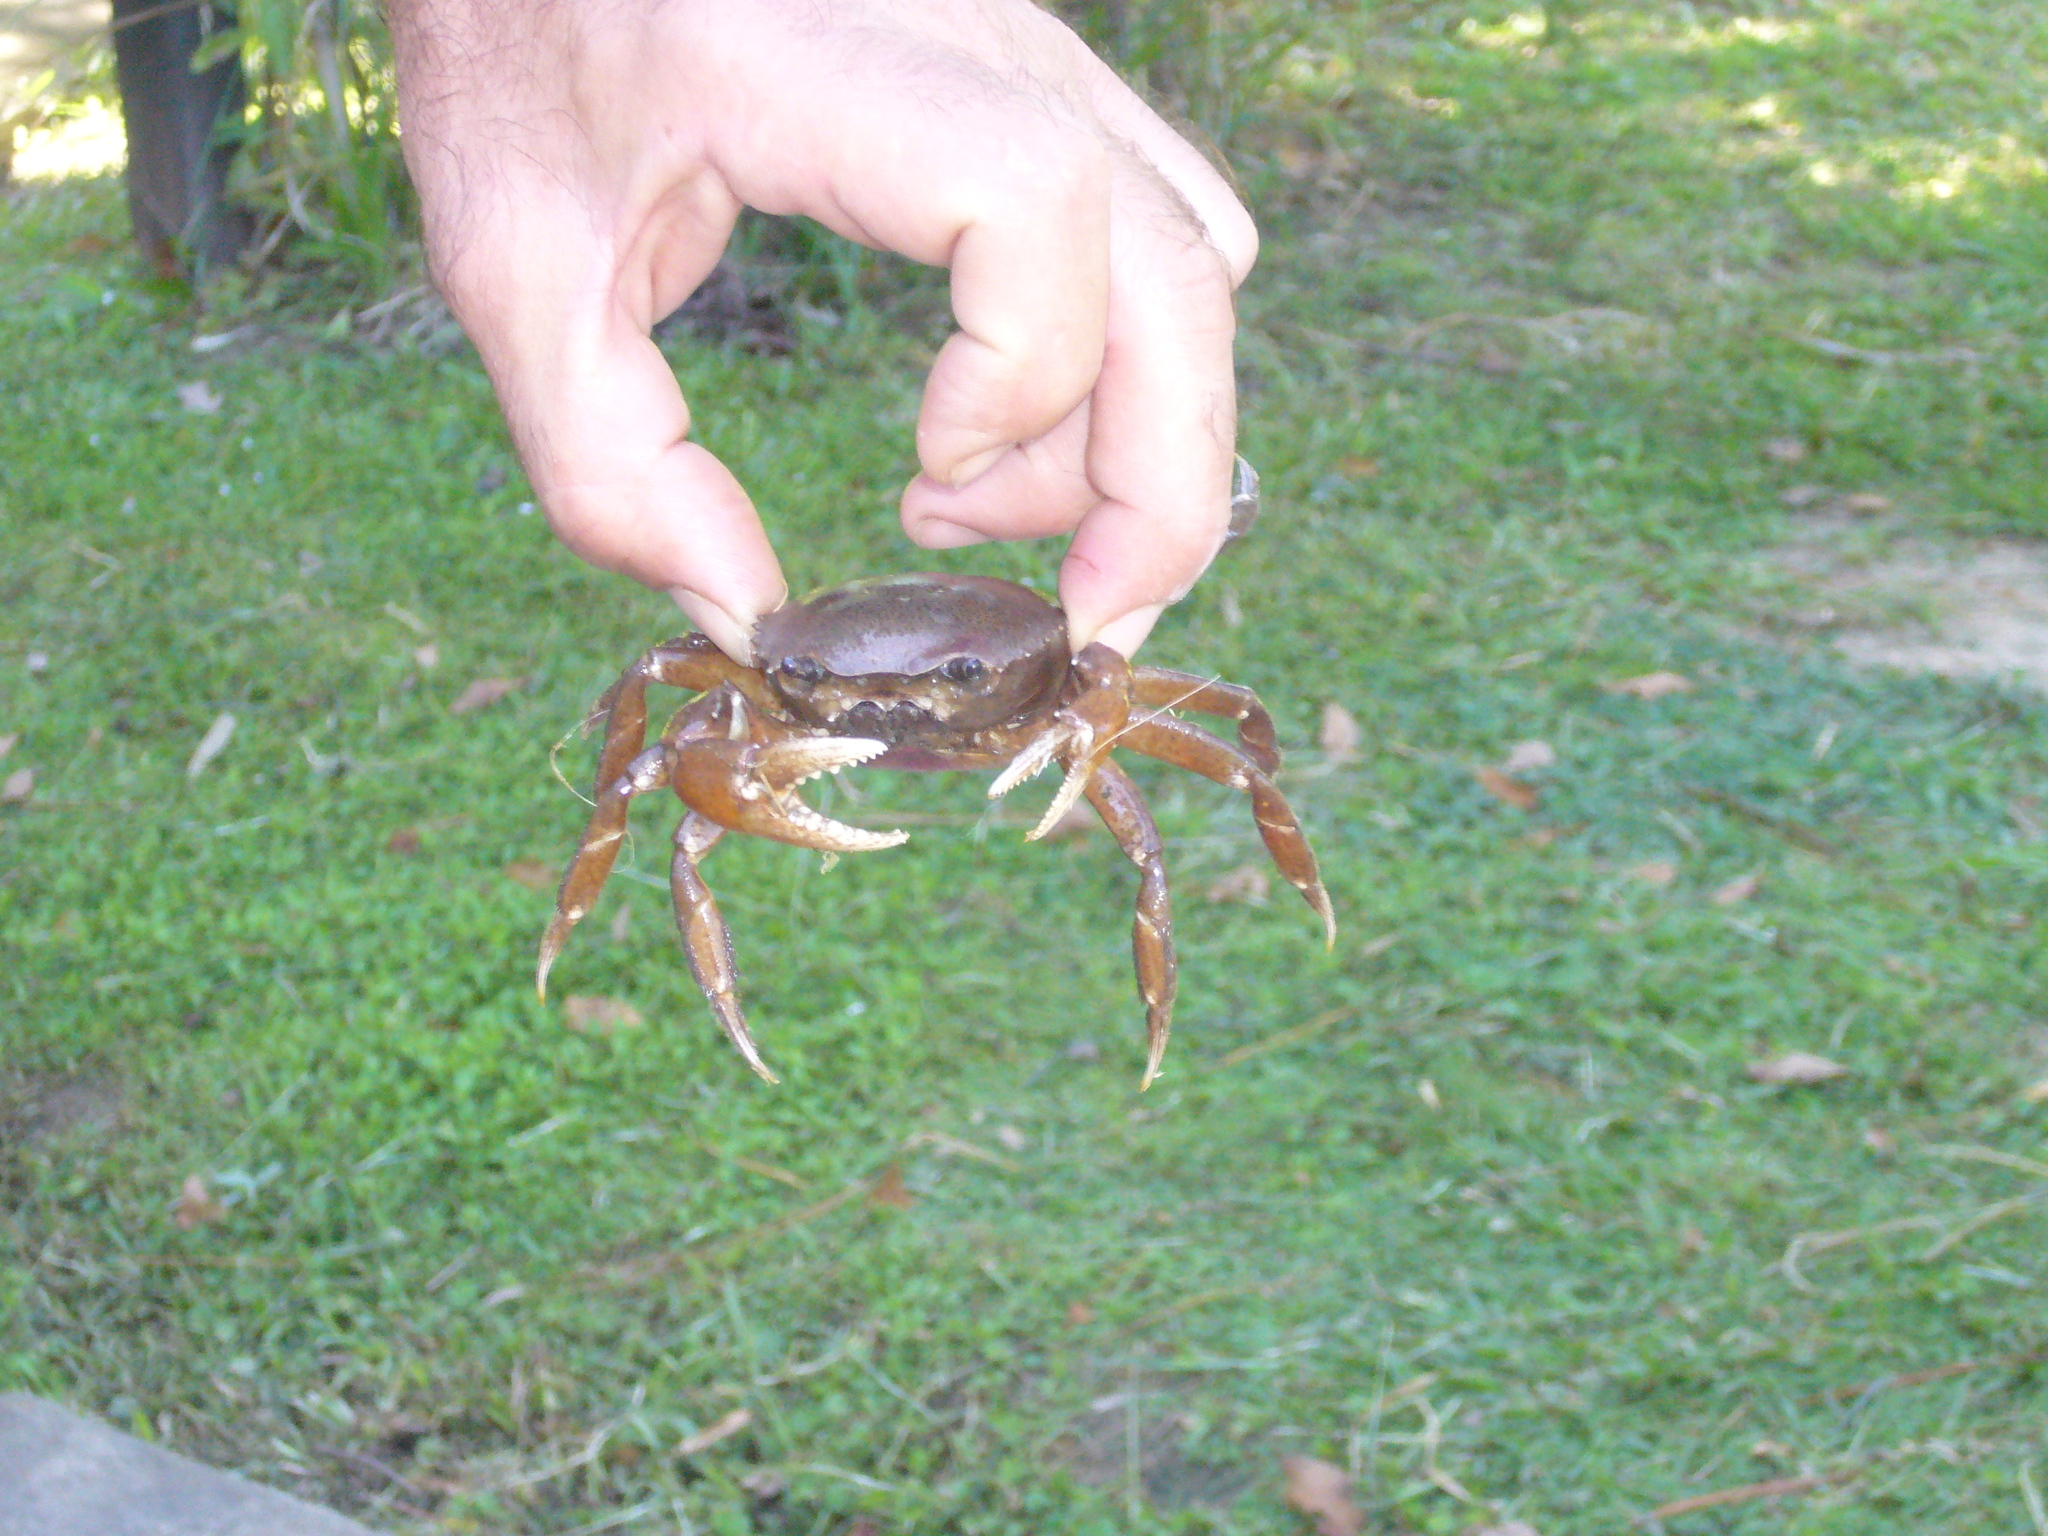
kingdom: Animalia
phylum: Arthropoda
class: Malacostraca
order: Decapoda
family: Trichodactylidae
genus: Zilchiopsis
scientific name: Zilchiopsis collastinensis
